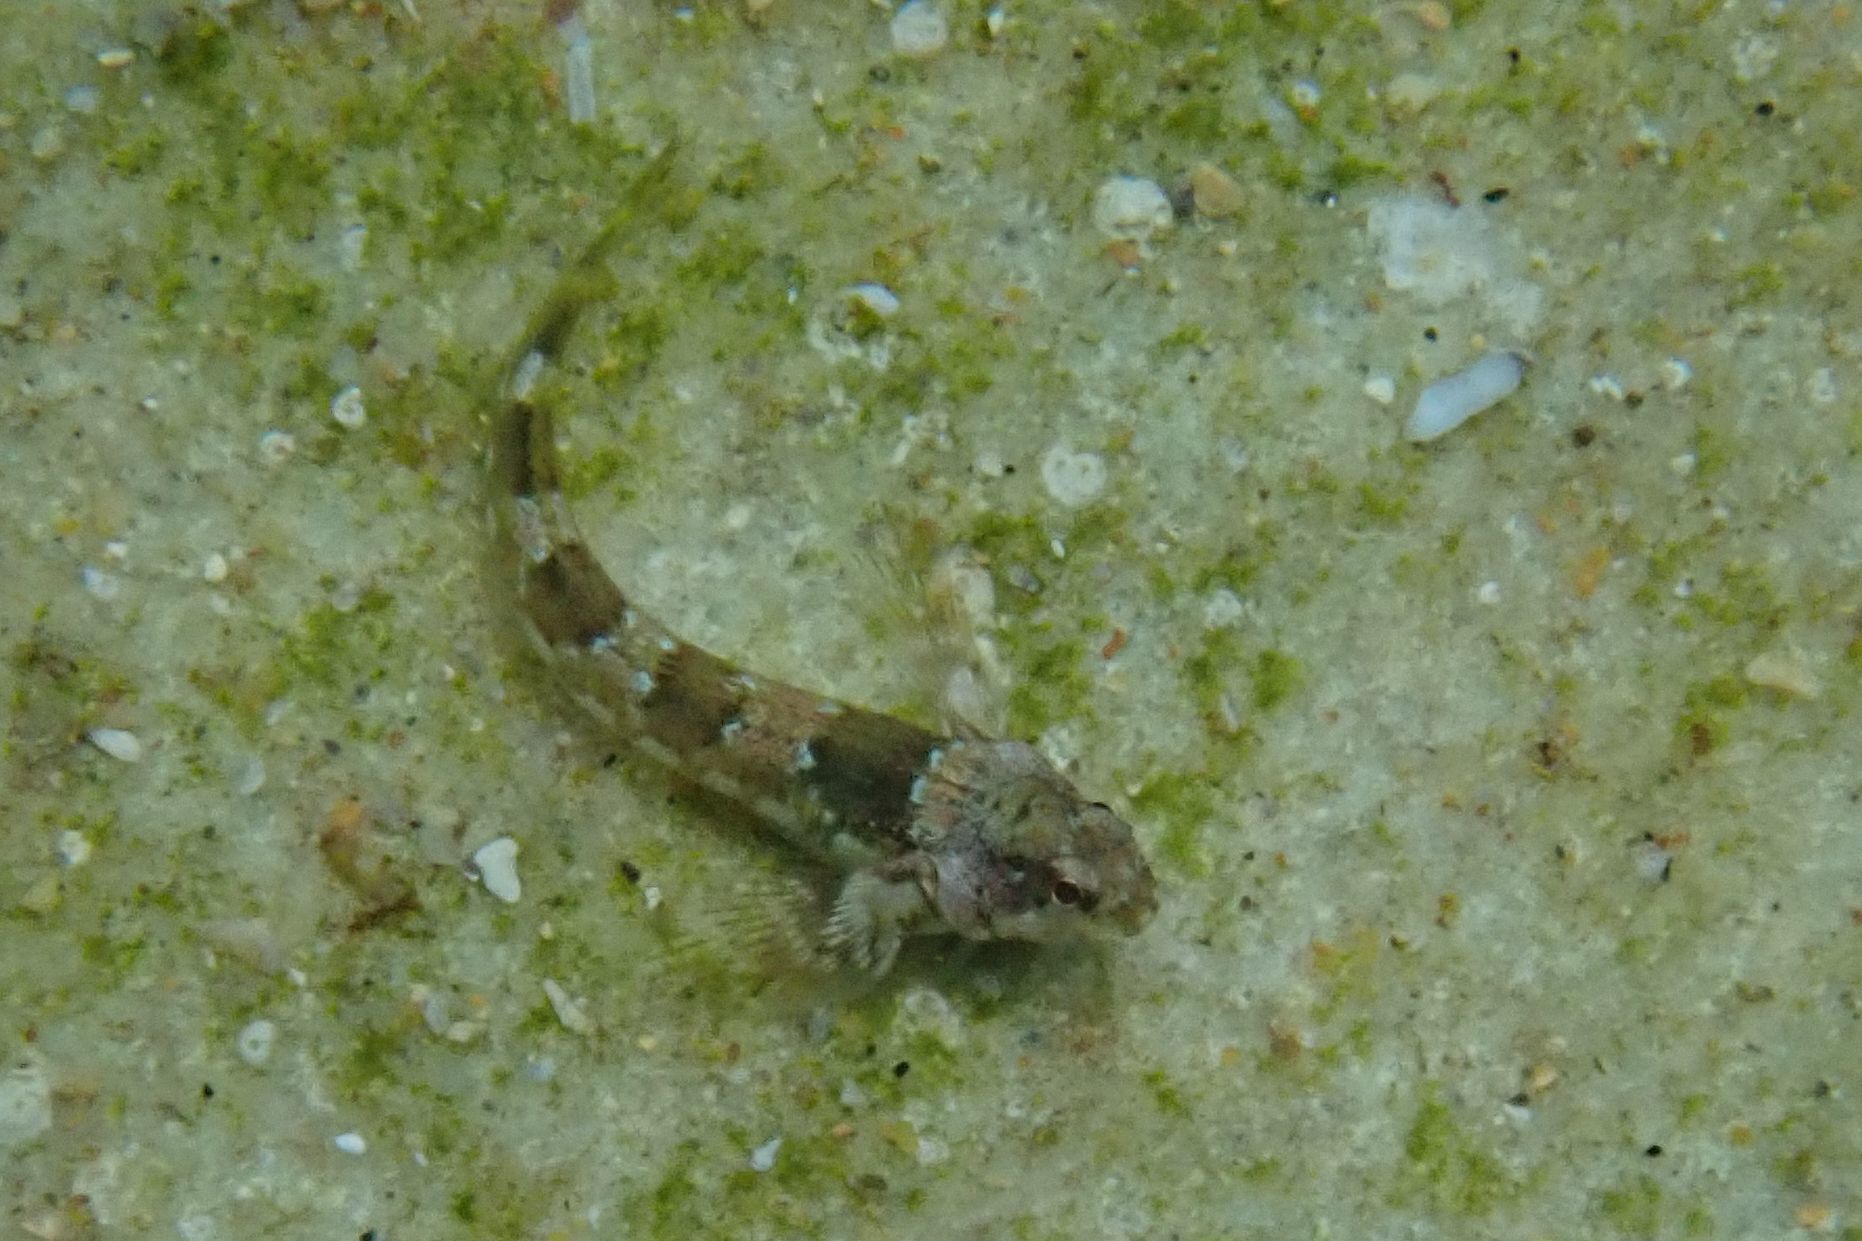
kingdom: Animalia
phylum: Chordata
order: Perciformes
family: Tripterygiidae
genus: Lepidoblennius
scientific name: Lepidoblennius haplodactylus
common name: Eastern jumping blenny
